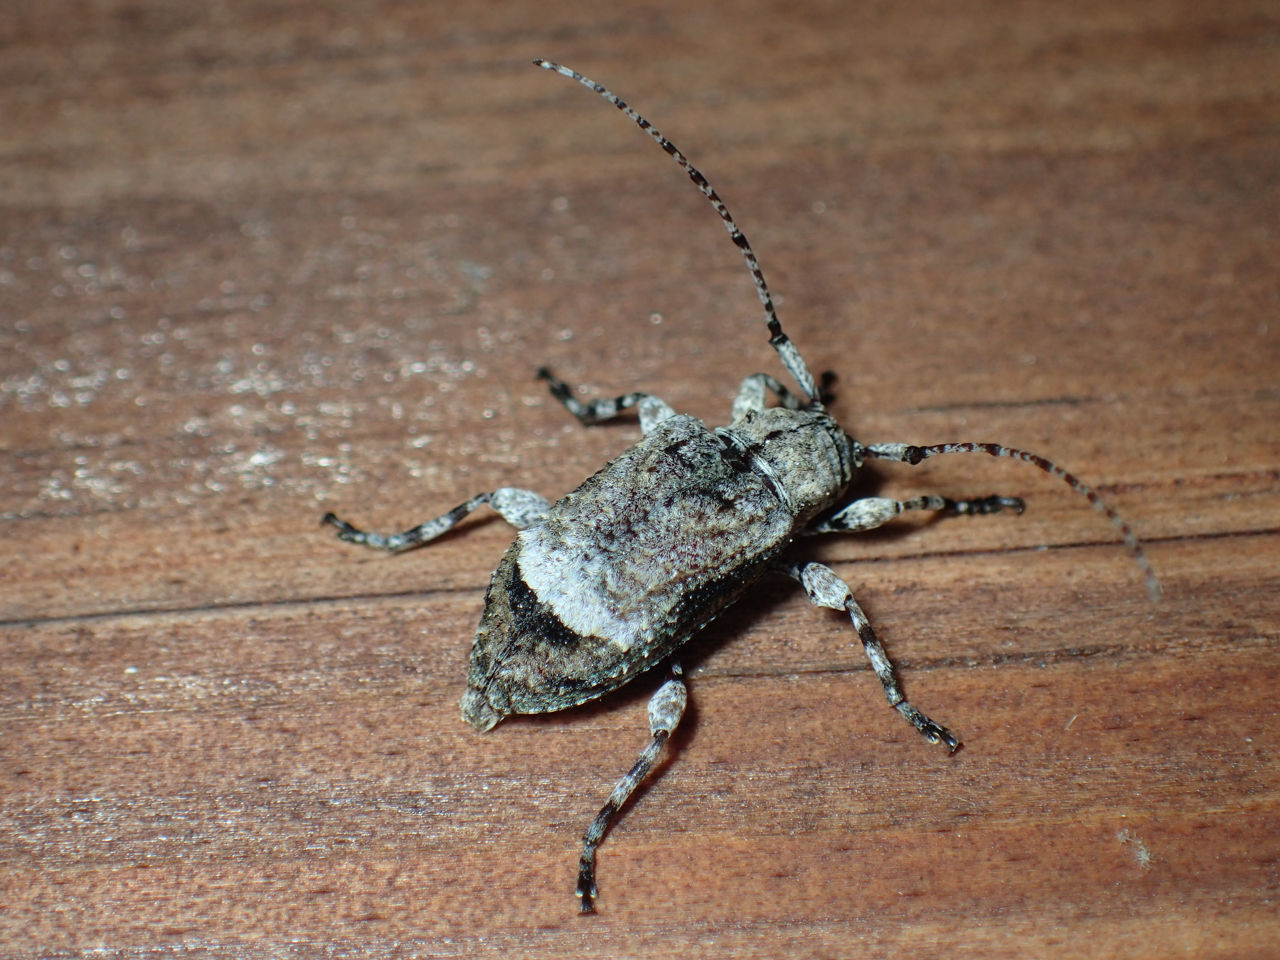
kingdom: Animalia
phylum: Arthropoda
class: Insecta
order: Coleoptera
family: Cerambycidae
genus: Leptostylus
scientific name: Leptostylus transversus
